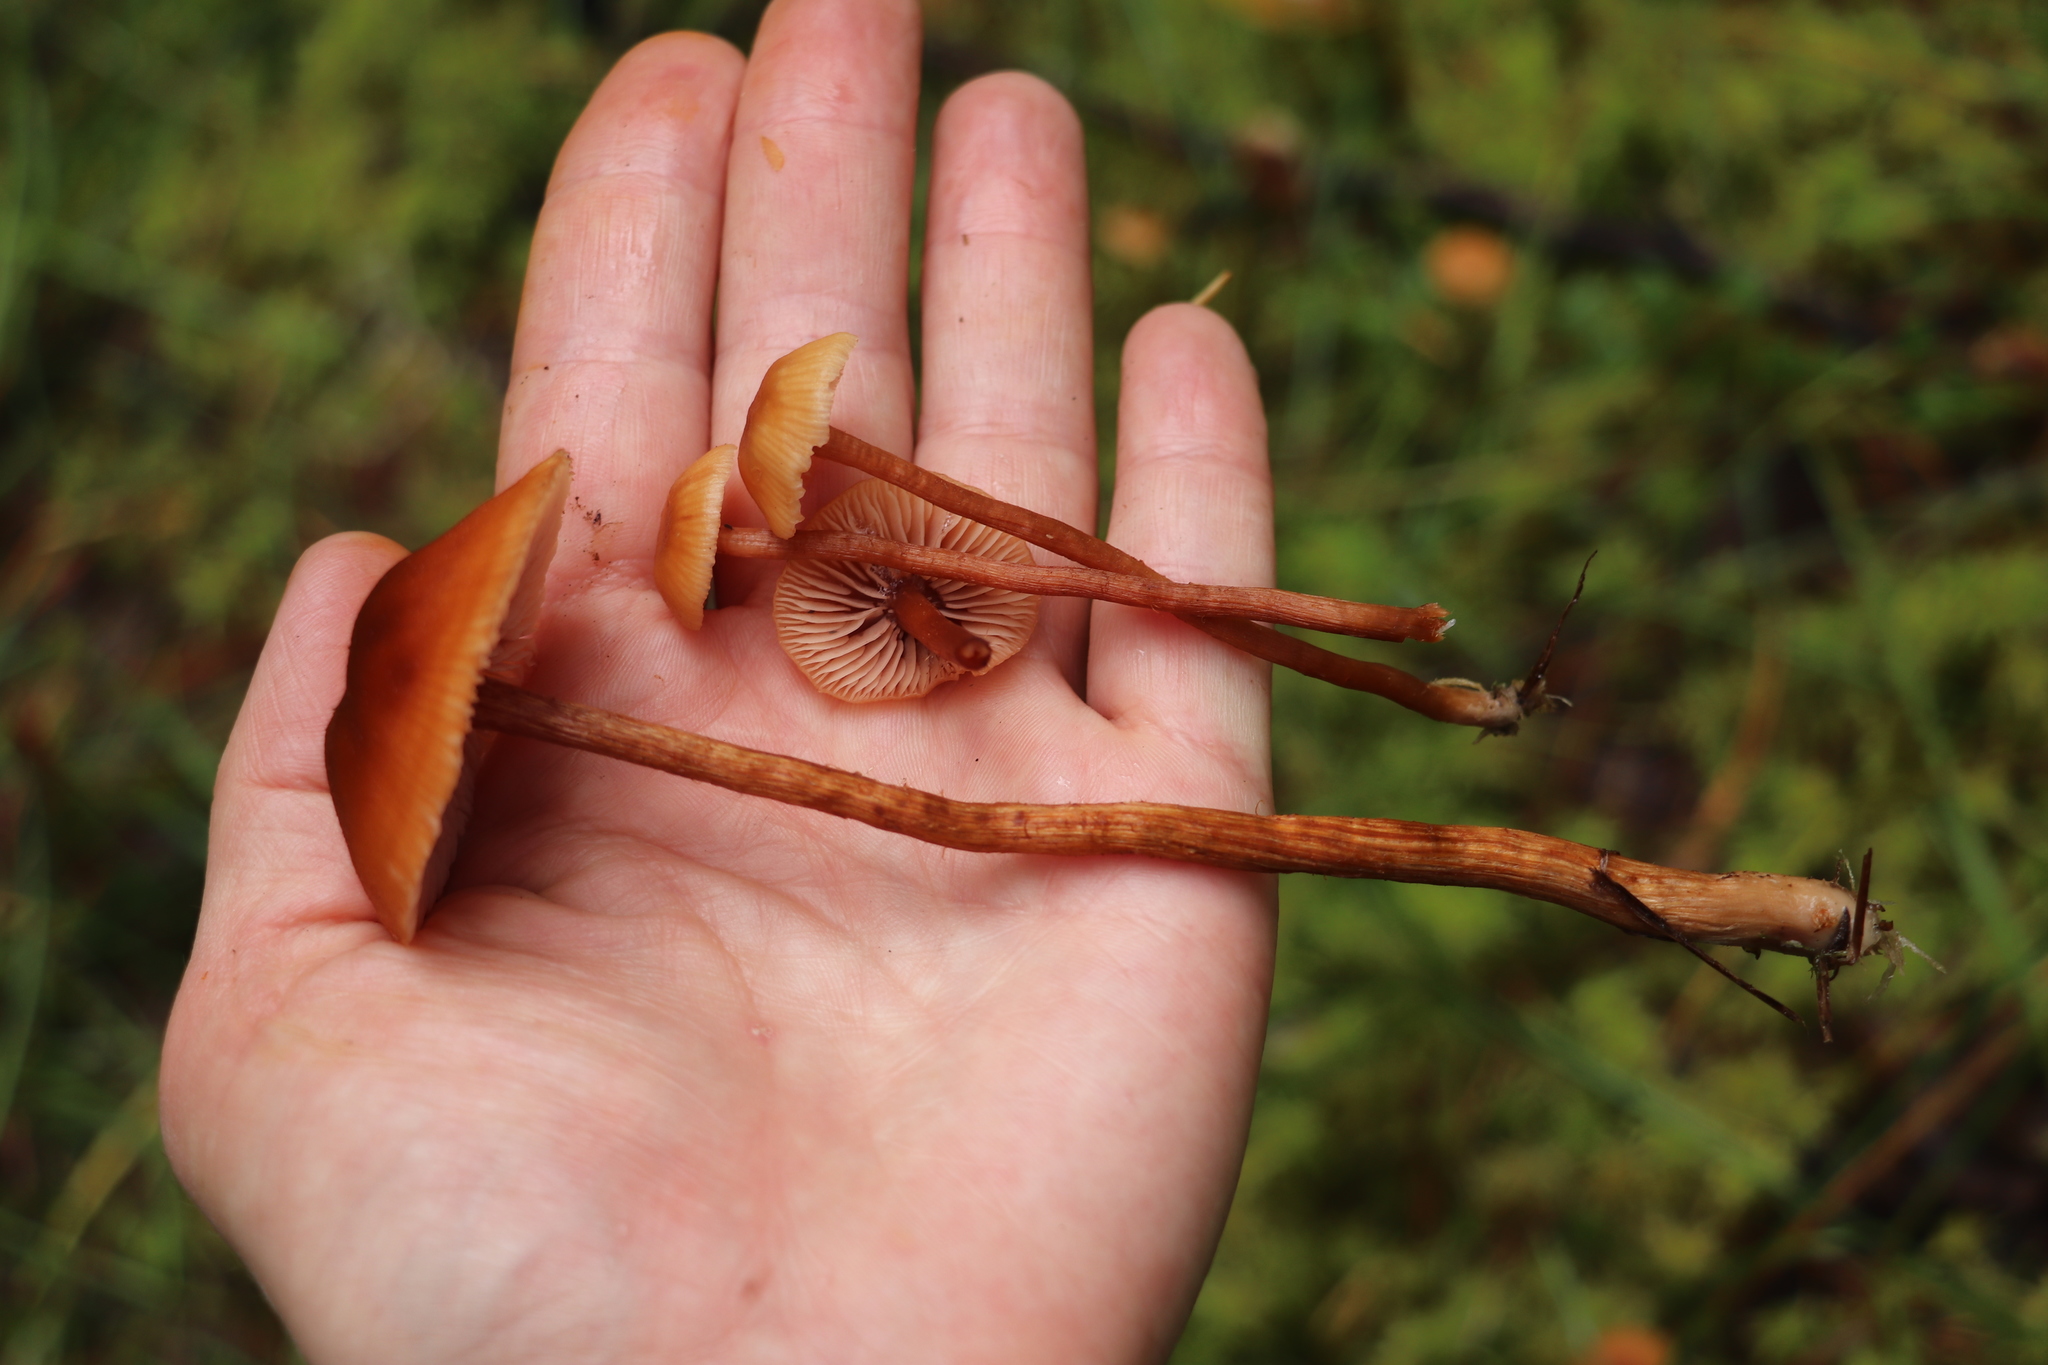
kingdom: Fungi
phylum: Basidiomycota
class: Agaricomycetes
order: Agaricales
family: Hydnangiaceae
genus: Laccaria
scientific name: Laccaria laccata
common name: Deceiver
